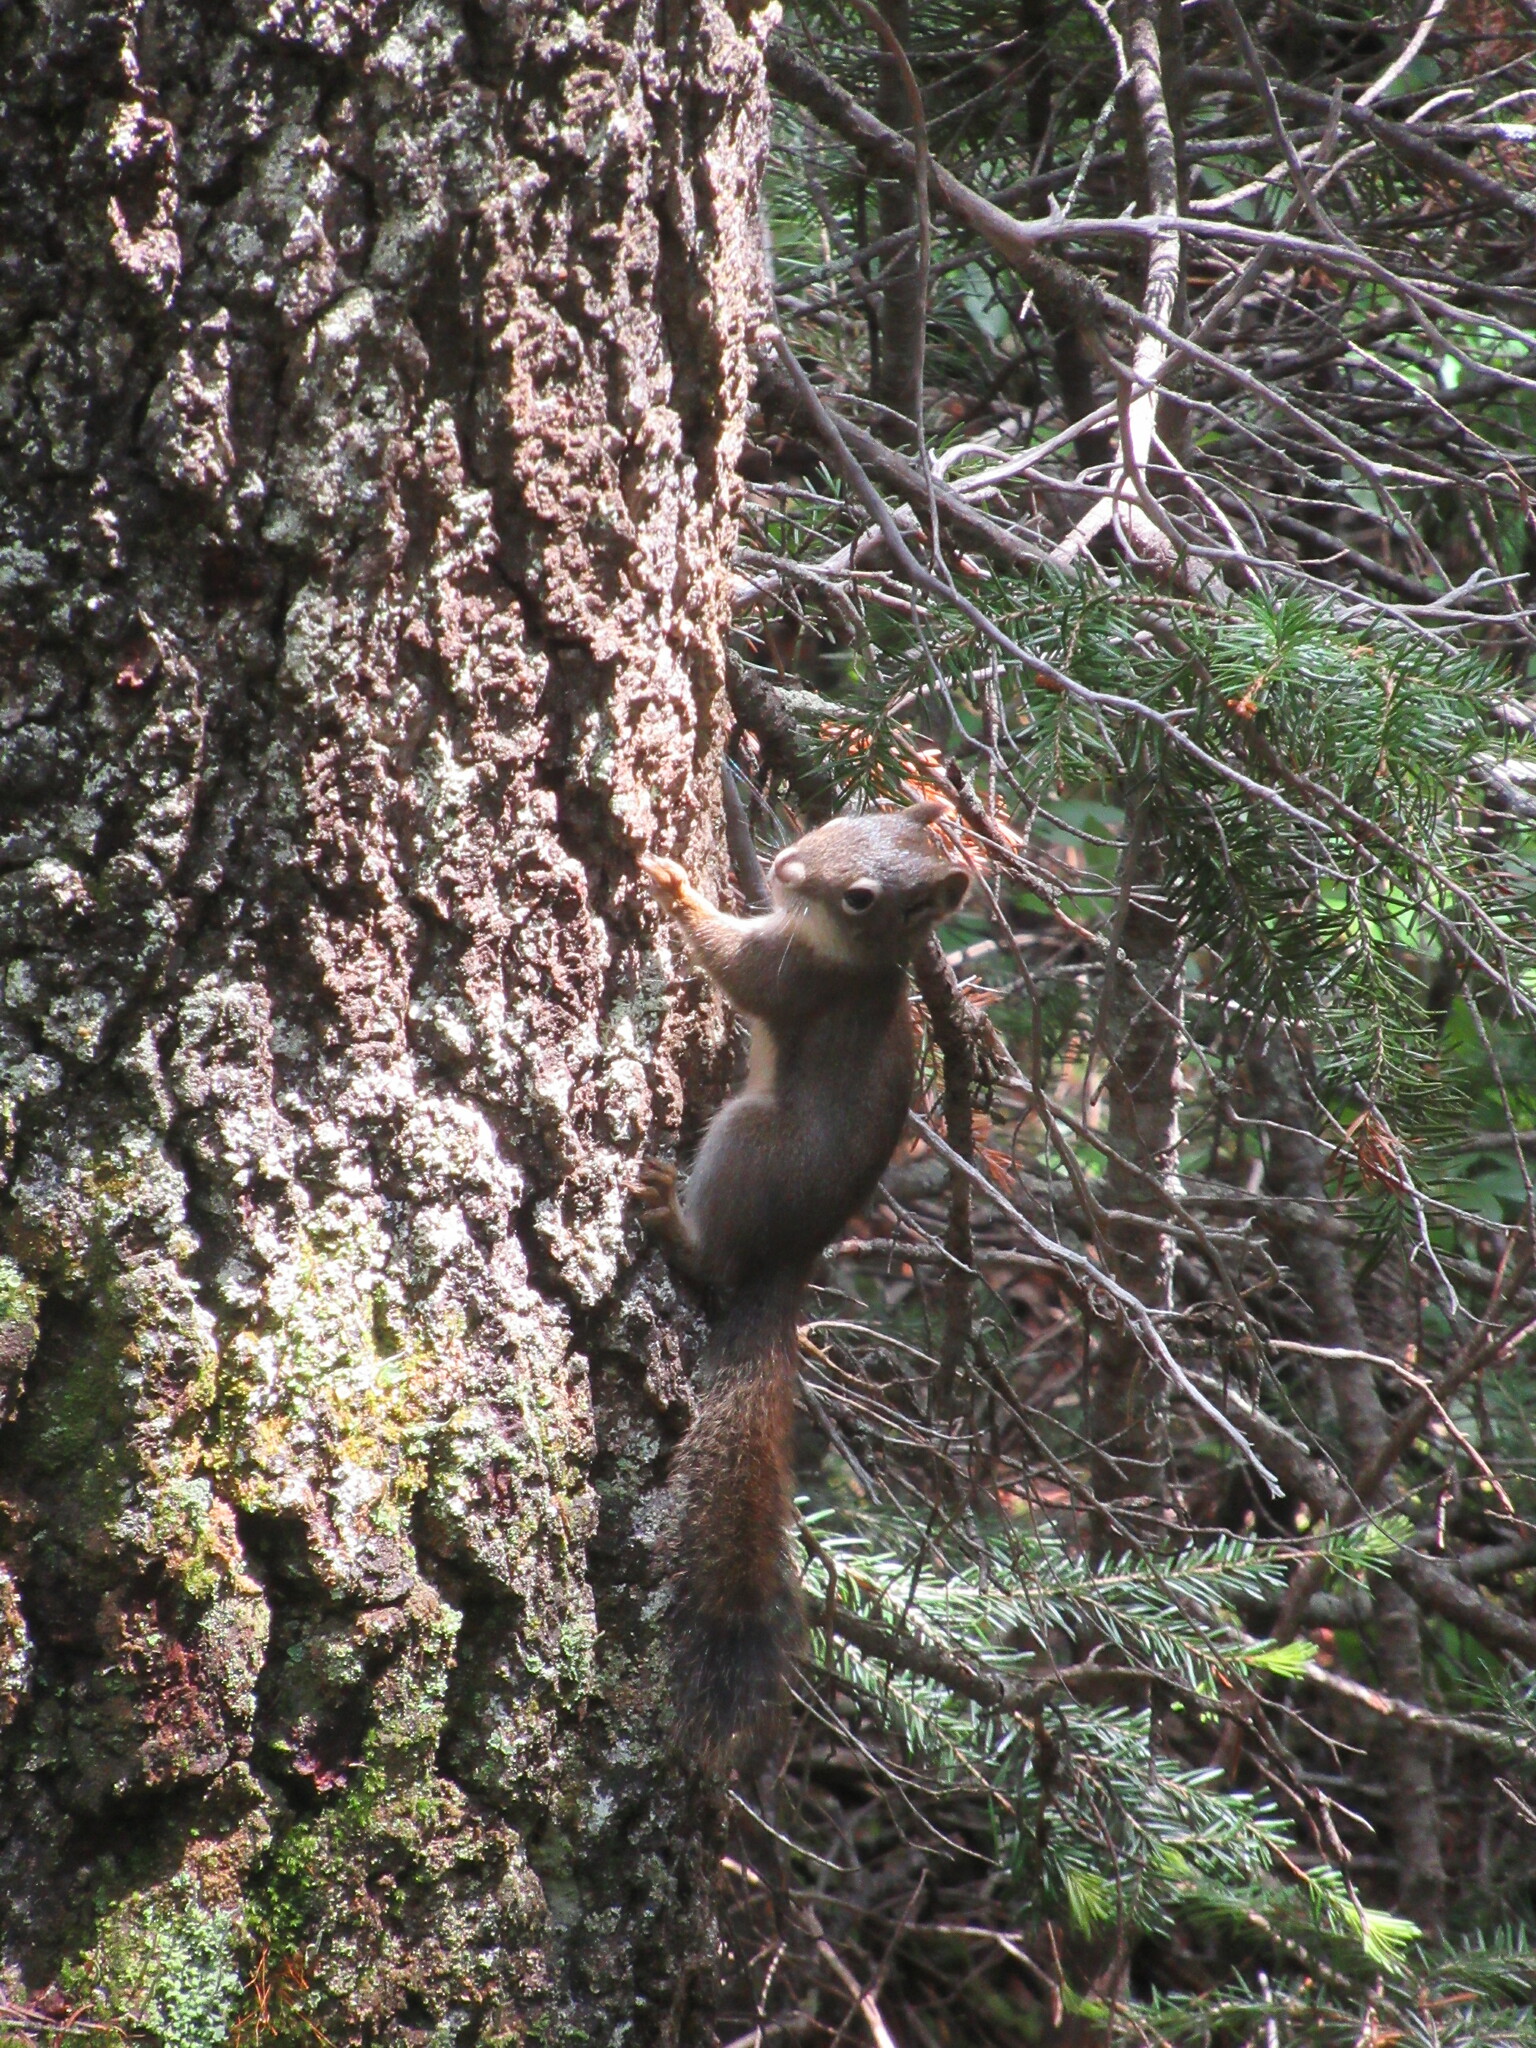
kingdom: Animalia
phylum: Chordata
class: Mammalia
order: Rodentia
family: Sciuridae
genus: Tamiasciurus
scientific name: Tamiasciurus hudsonicus
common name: Red squirrel
